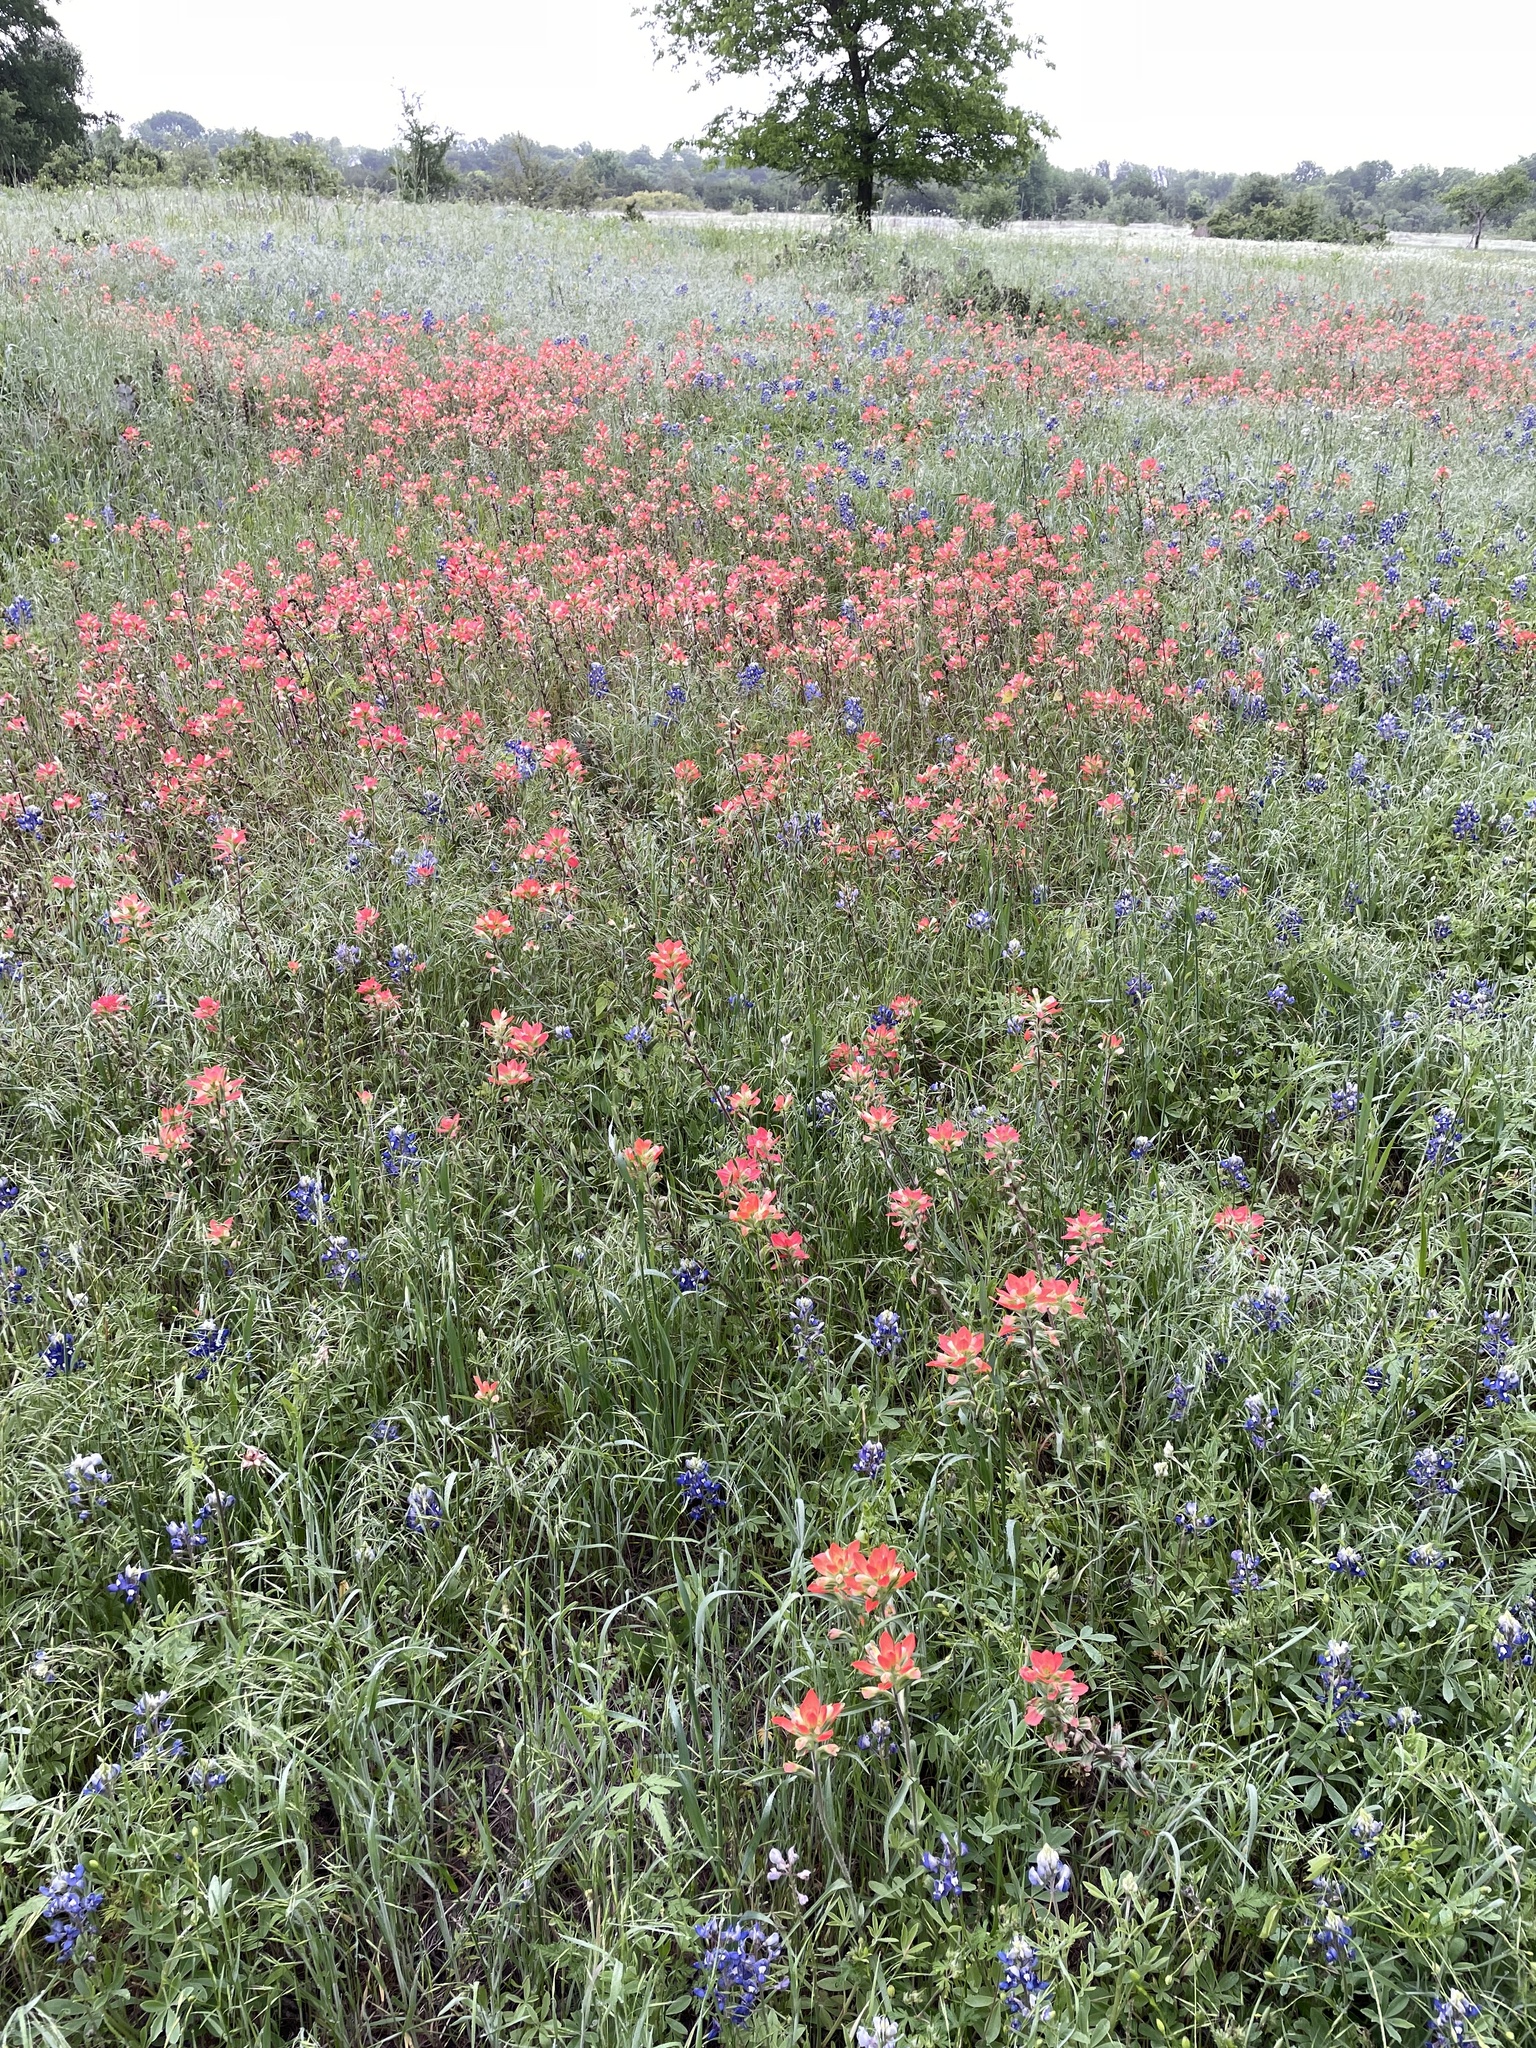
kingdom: Plantae
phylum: Tracheophyta
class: Magnoliopsida
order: Lamiales
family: Orobanchaceae
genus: Castilleja
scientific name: Castilleja indivisa
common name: Texas paintbrush
